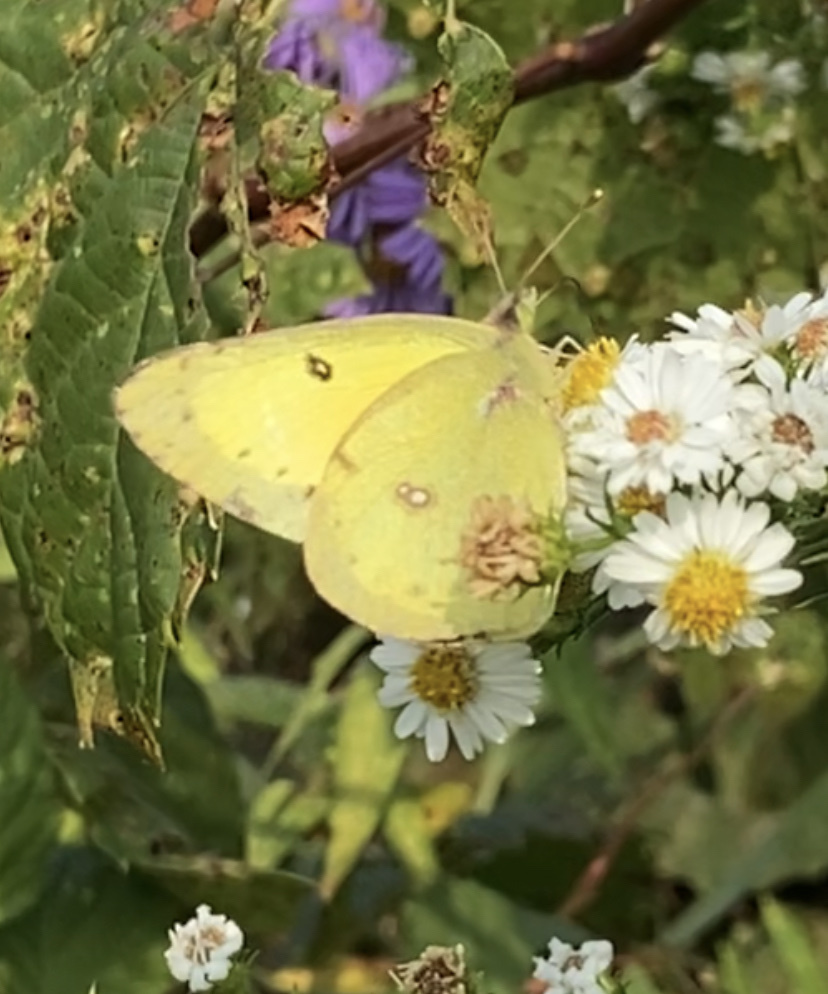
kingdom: Animalia
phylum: Arthropoda
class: Insecta
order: Lepidoptera
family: Pieridae
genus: Colias
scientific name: Colias philodice
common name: Clouded sulphur
